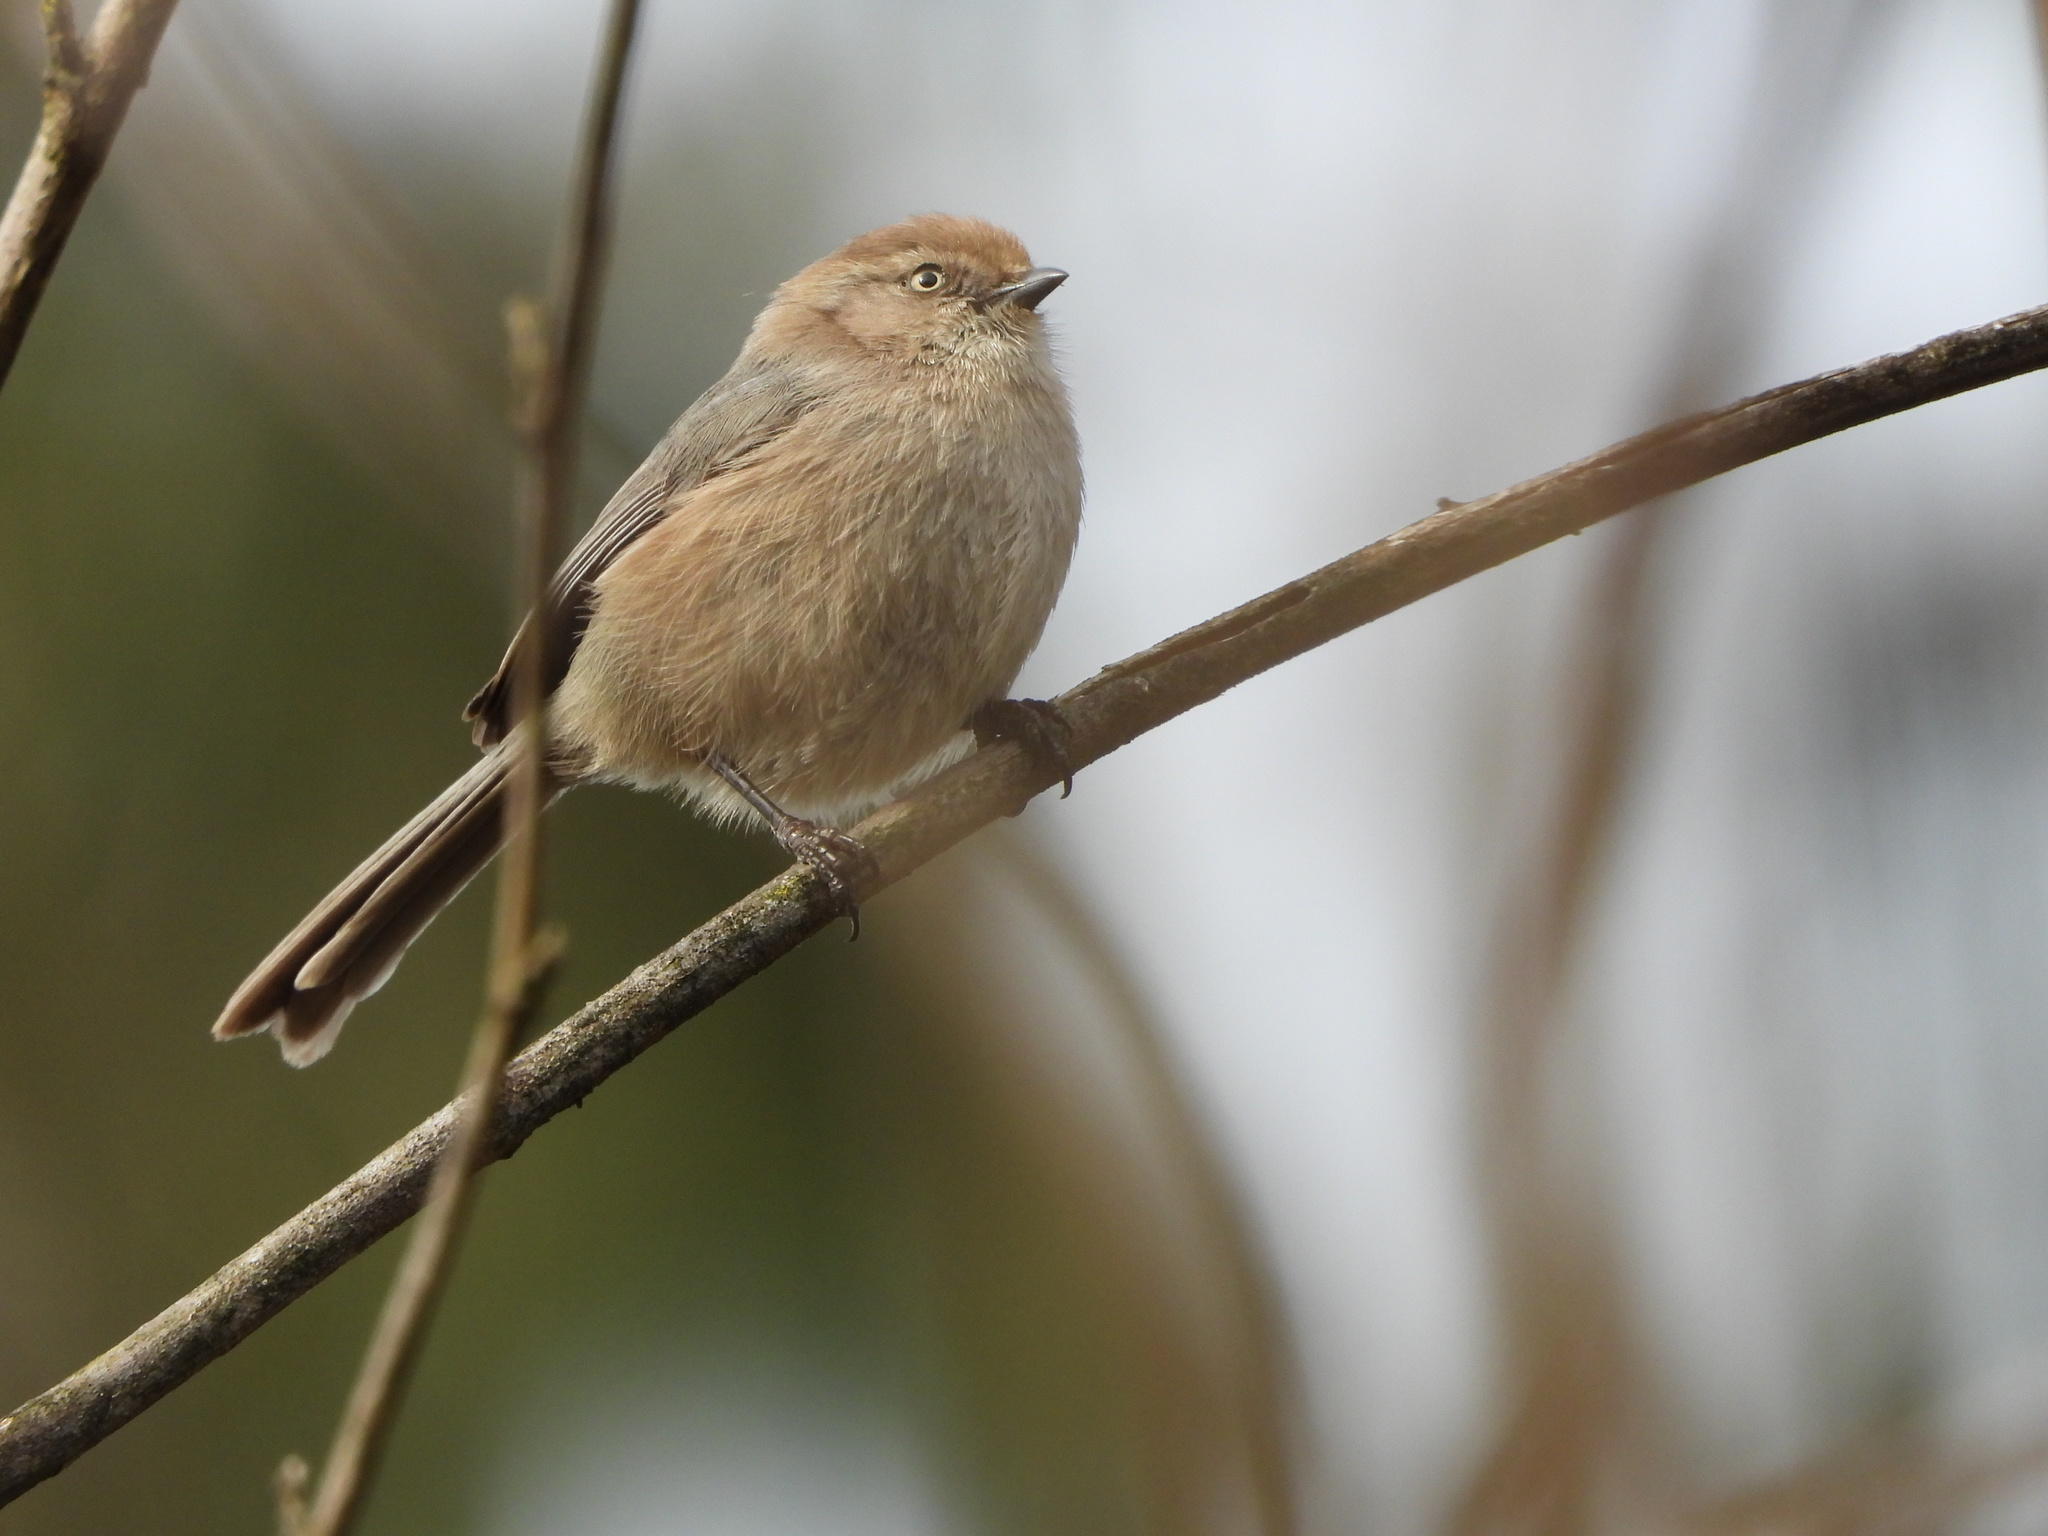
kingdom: Animalia
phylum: Chordata
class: Aves
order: Passeriformes
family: Aegithalidae
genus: Psaltriparus
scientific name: Psaltriparus minimus
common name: American bushtit
